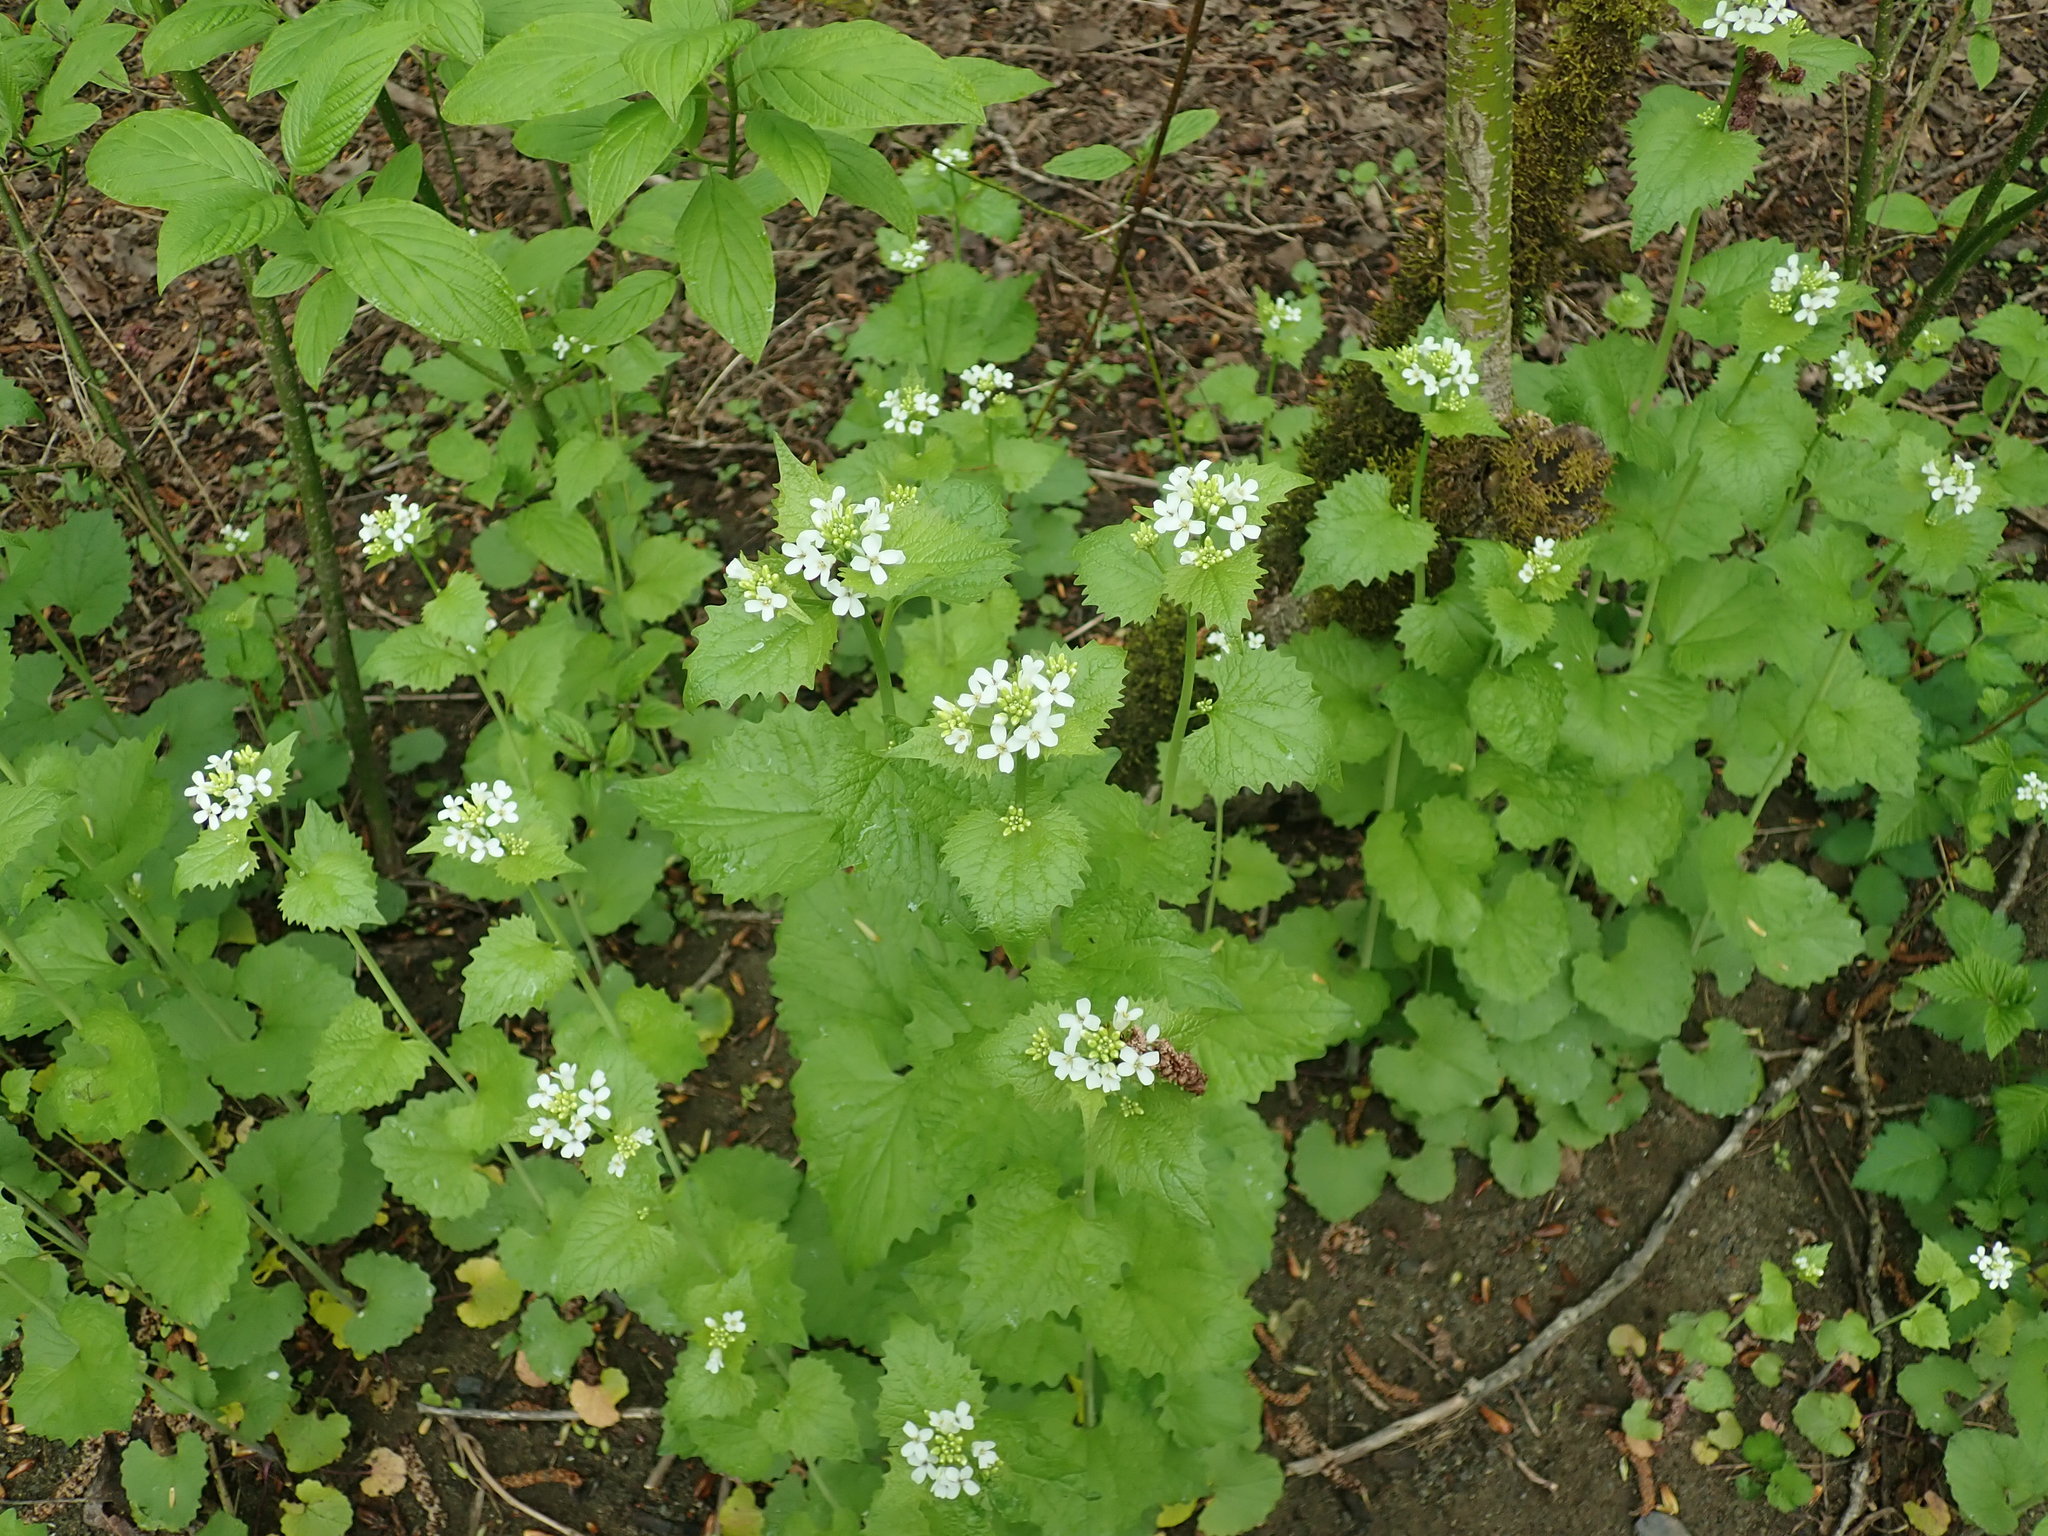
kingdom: Plantae
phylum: Tracheophyta
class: Magnoliopsida
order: Brassicales
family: Brassicaceae
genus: Alliaria
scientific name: Alliaria petiolata
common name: Garlic mustard
